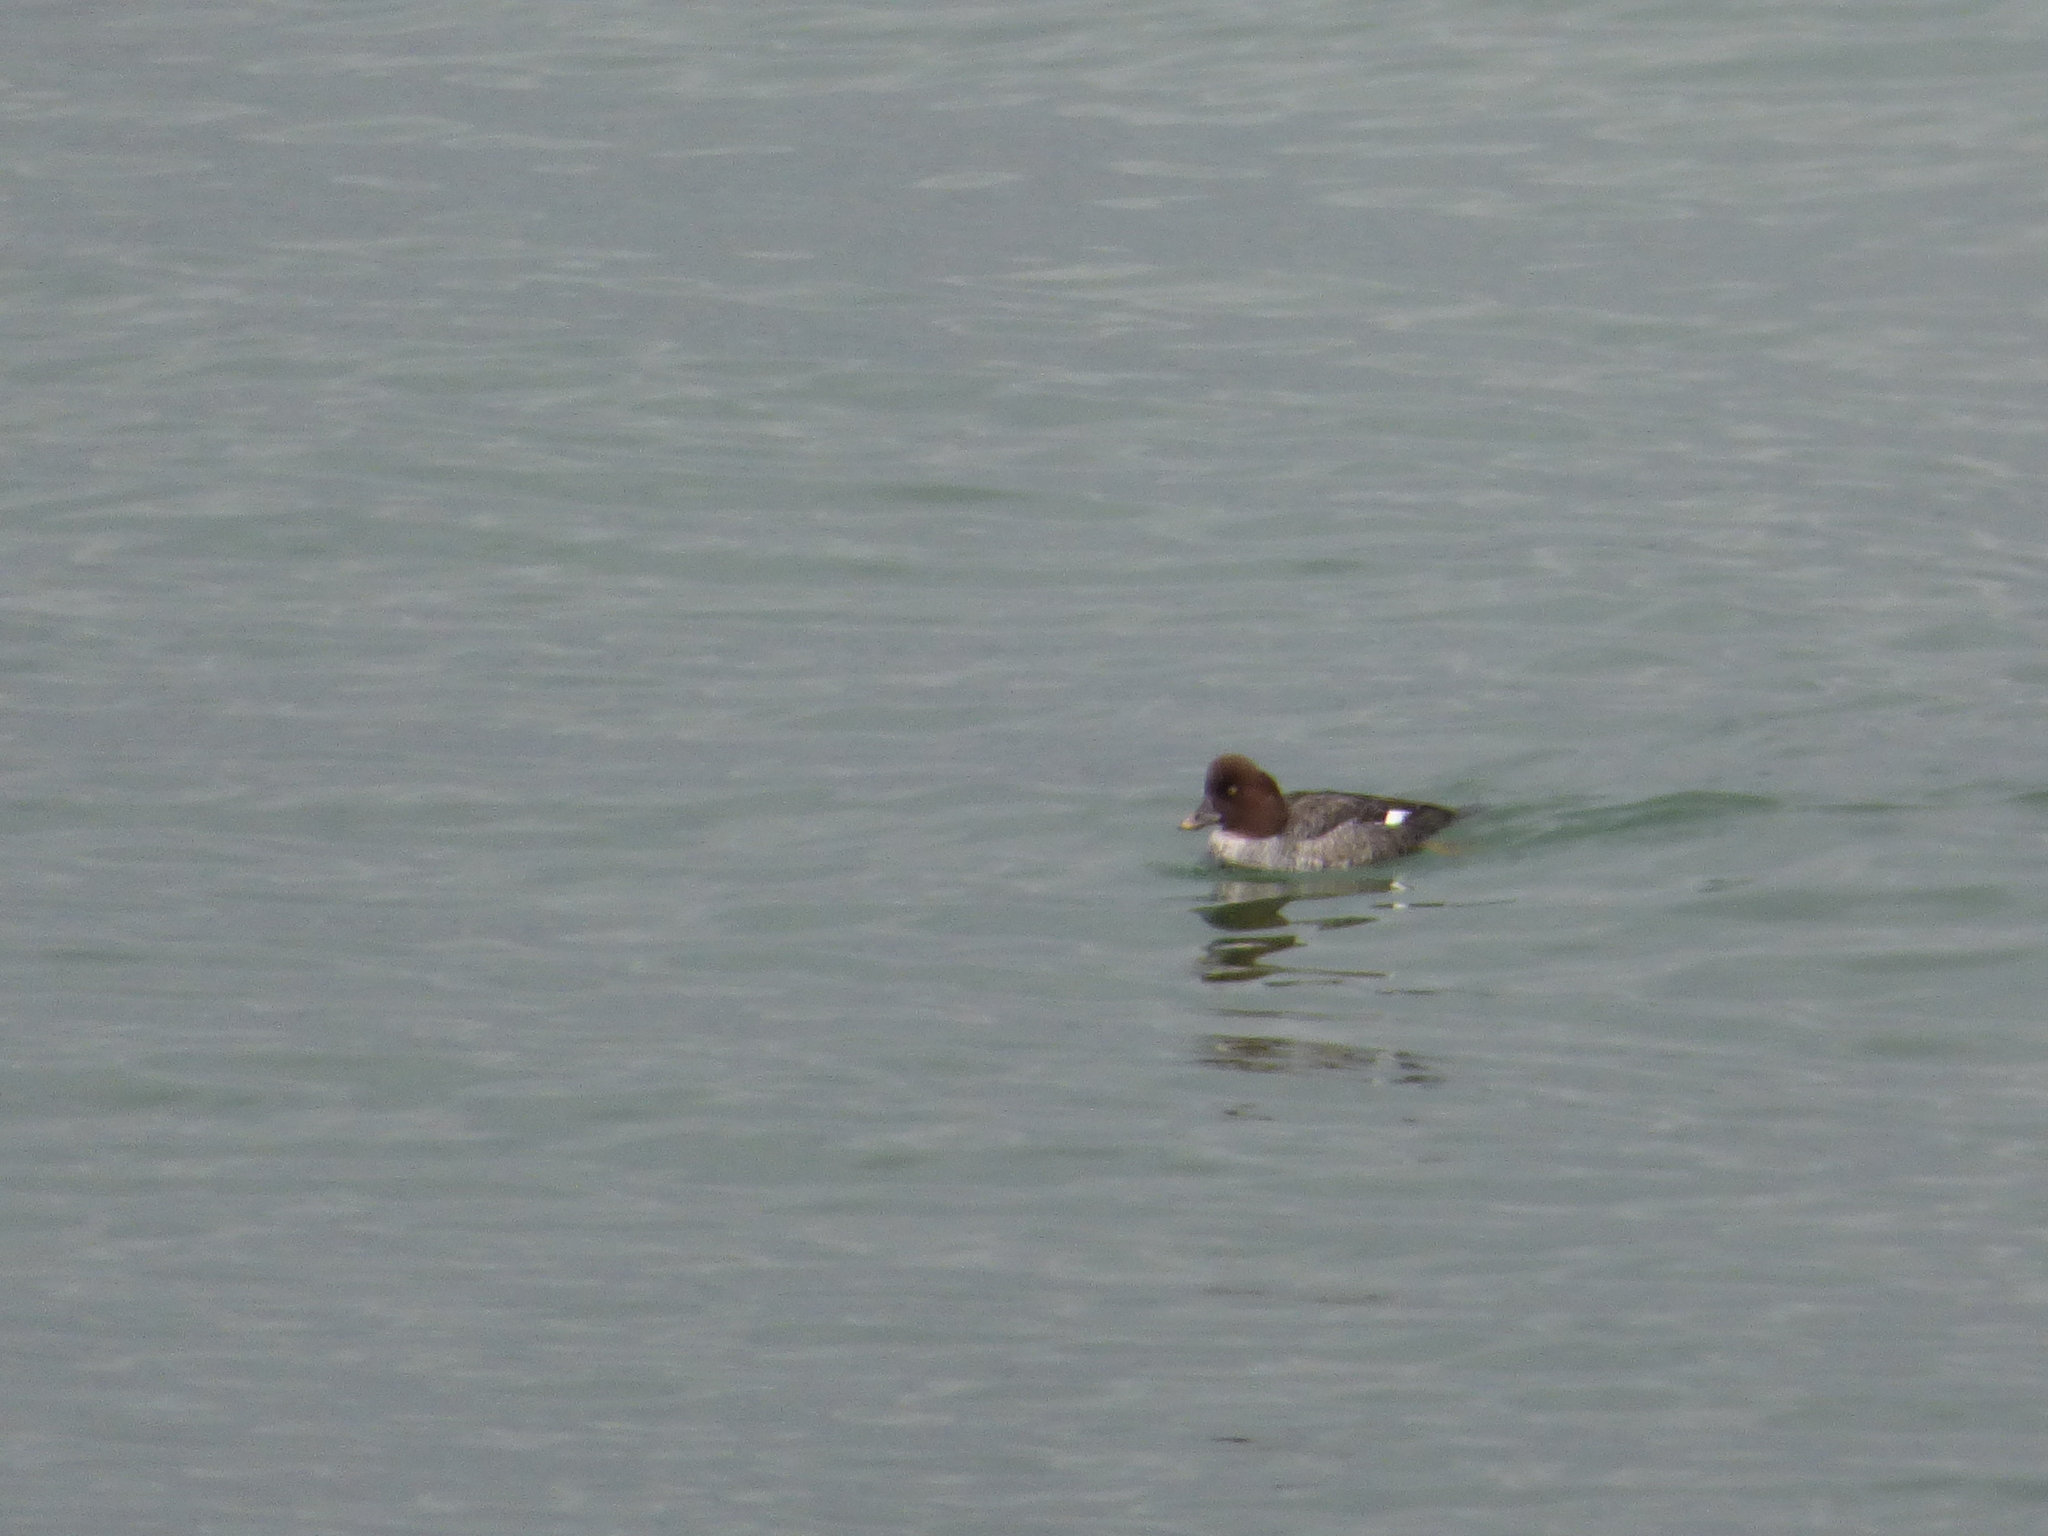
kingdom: Animalia
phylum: Chordata
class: Aves
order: Anseriformes
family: Anatidae
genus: Bucephala
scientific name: Bucephala clangula
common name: Common goldeneye
